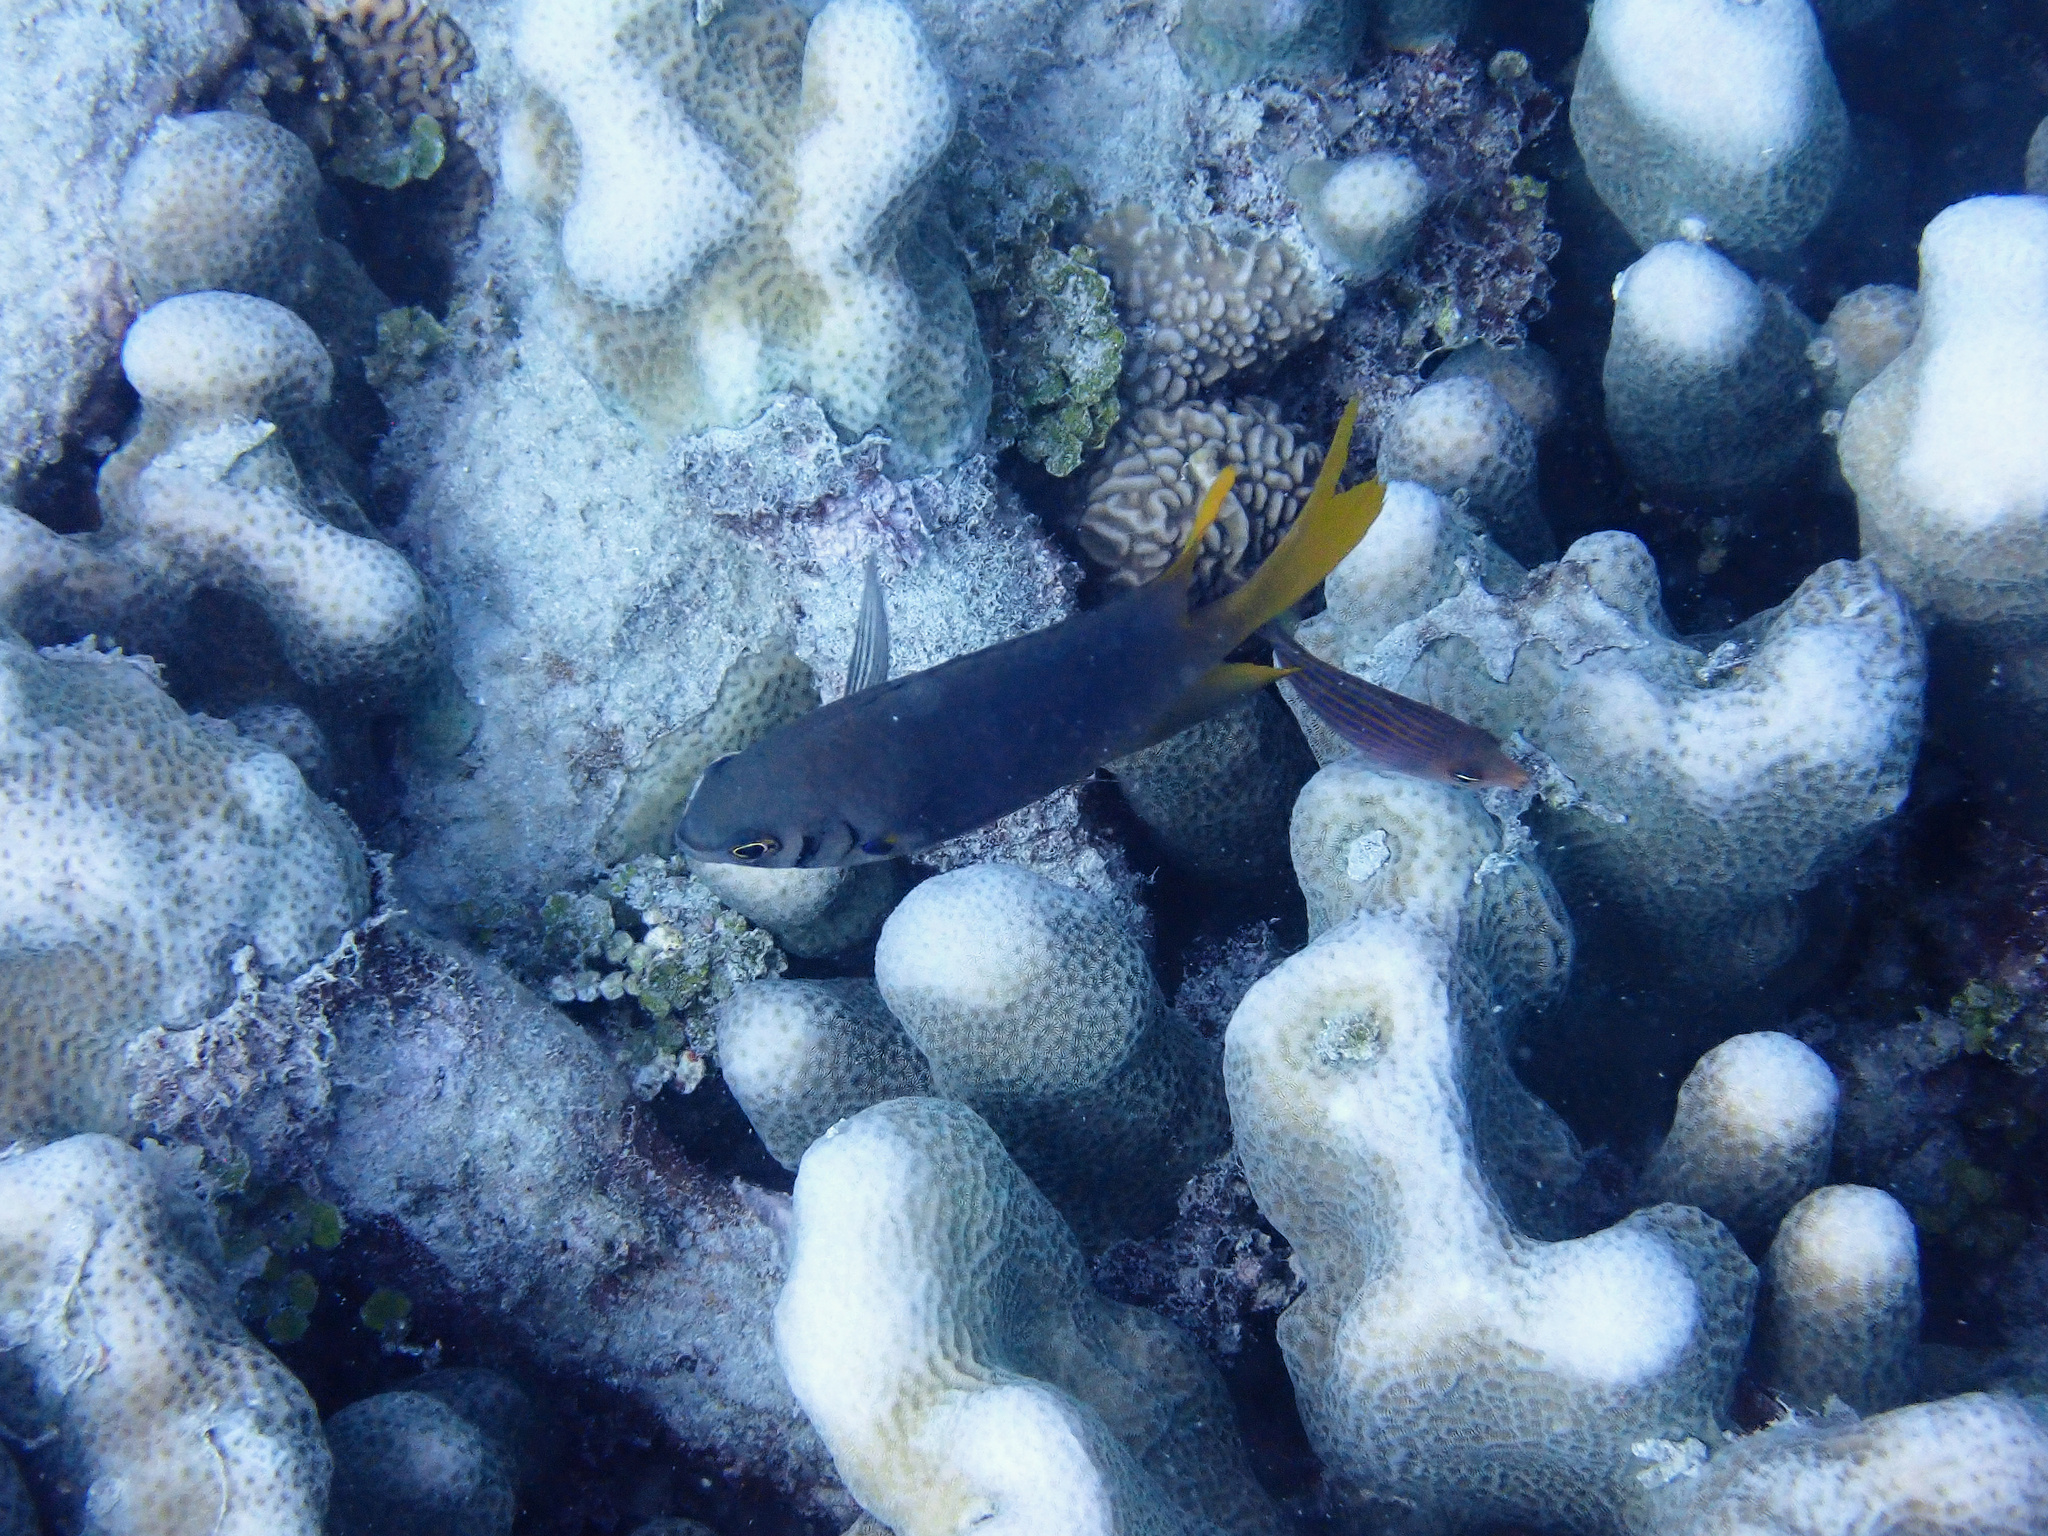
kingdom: Animalia
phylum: Chordata
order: Perciformes
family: Pomacentridae
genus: Neoglyphidodon
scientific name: Neoglyphidodon nigroris
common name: Behn's damsel
